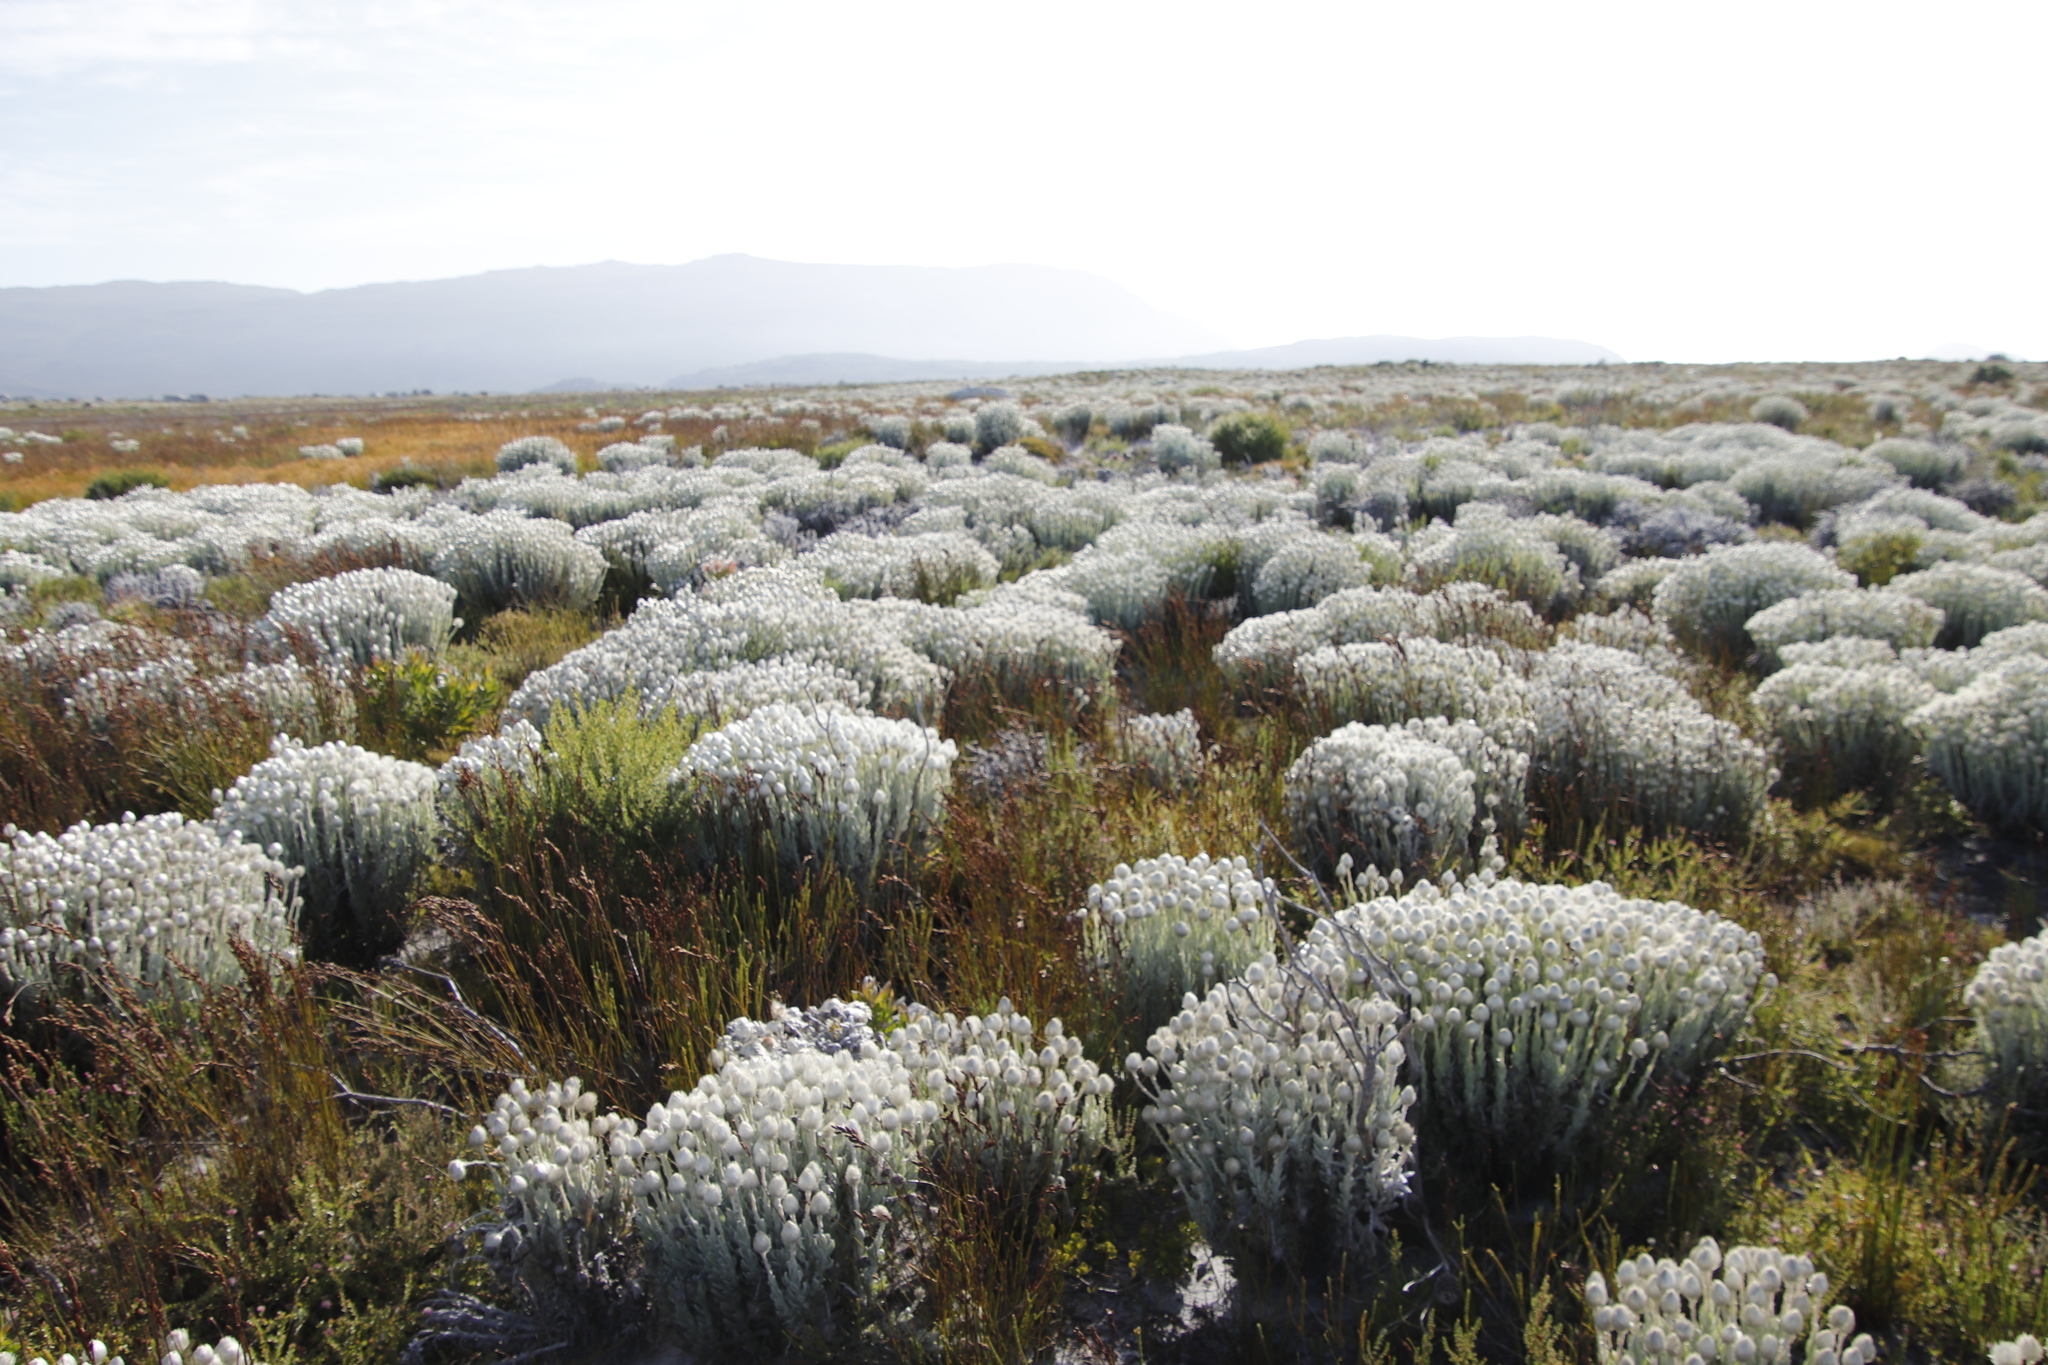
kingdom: Plantae
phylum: Tracheophyta
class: Magnoliopsida
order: Asterales
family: Asteraceae
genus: Syncarpha
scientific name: Syncarpha vestita
